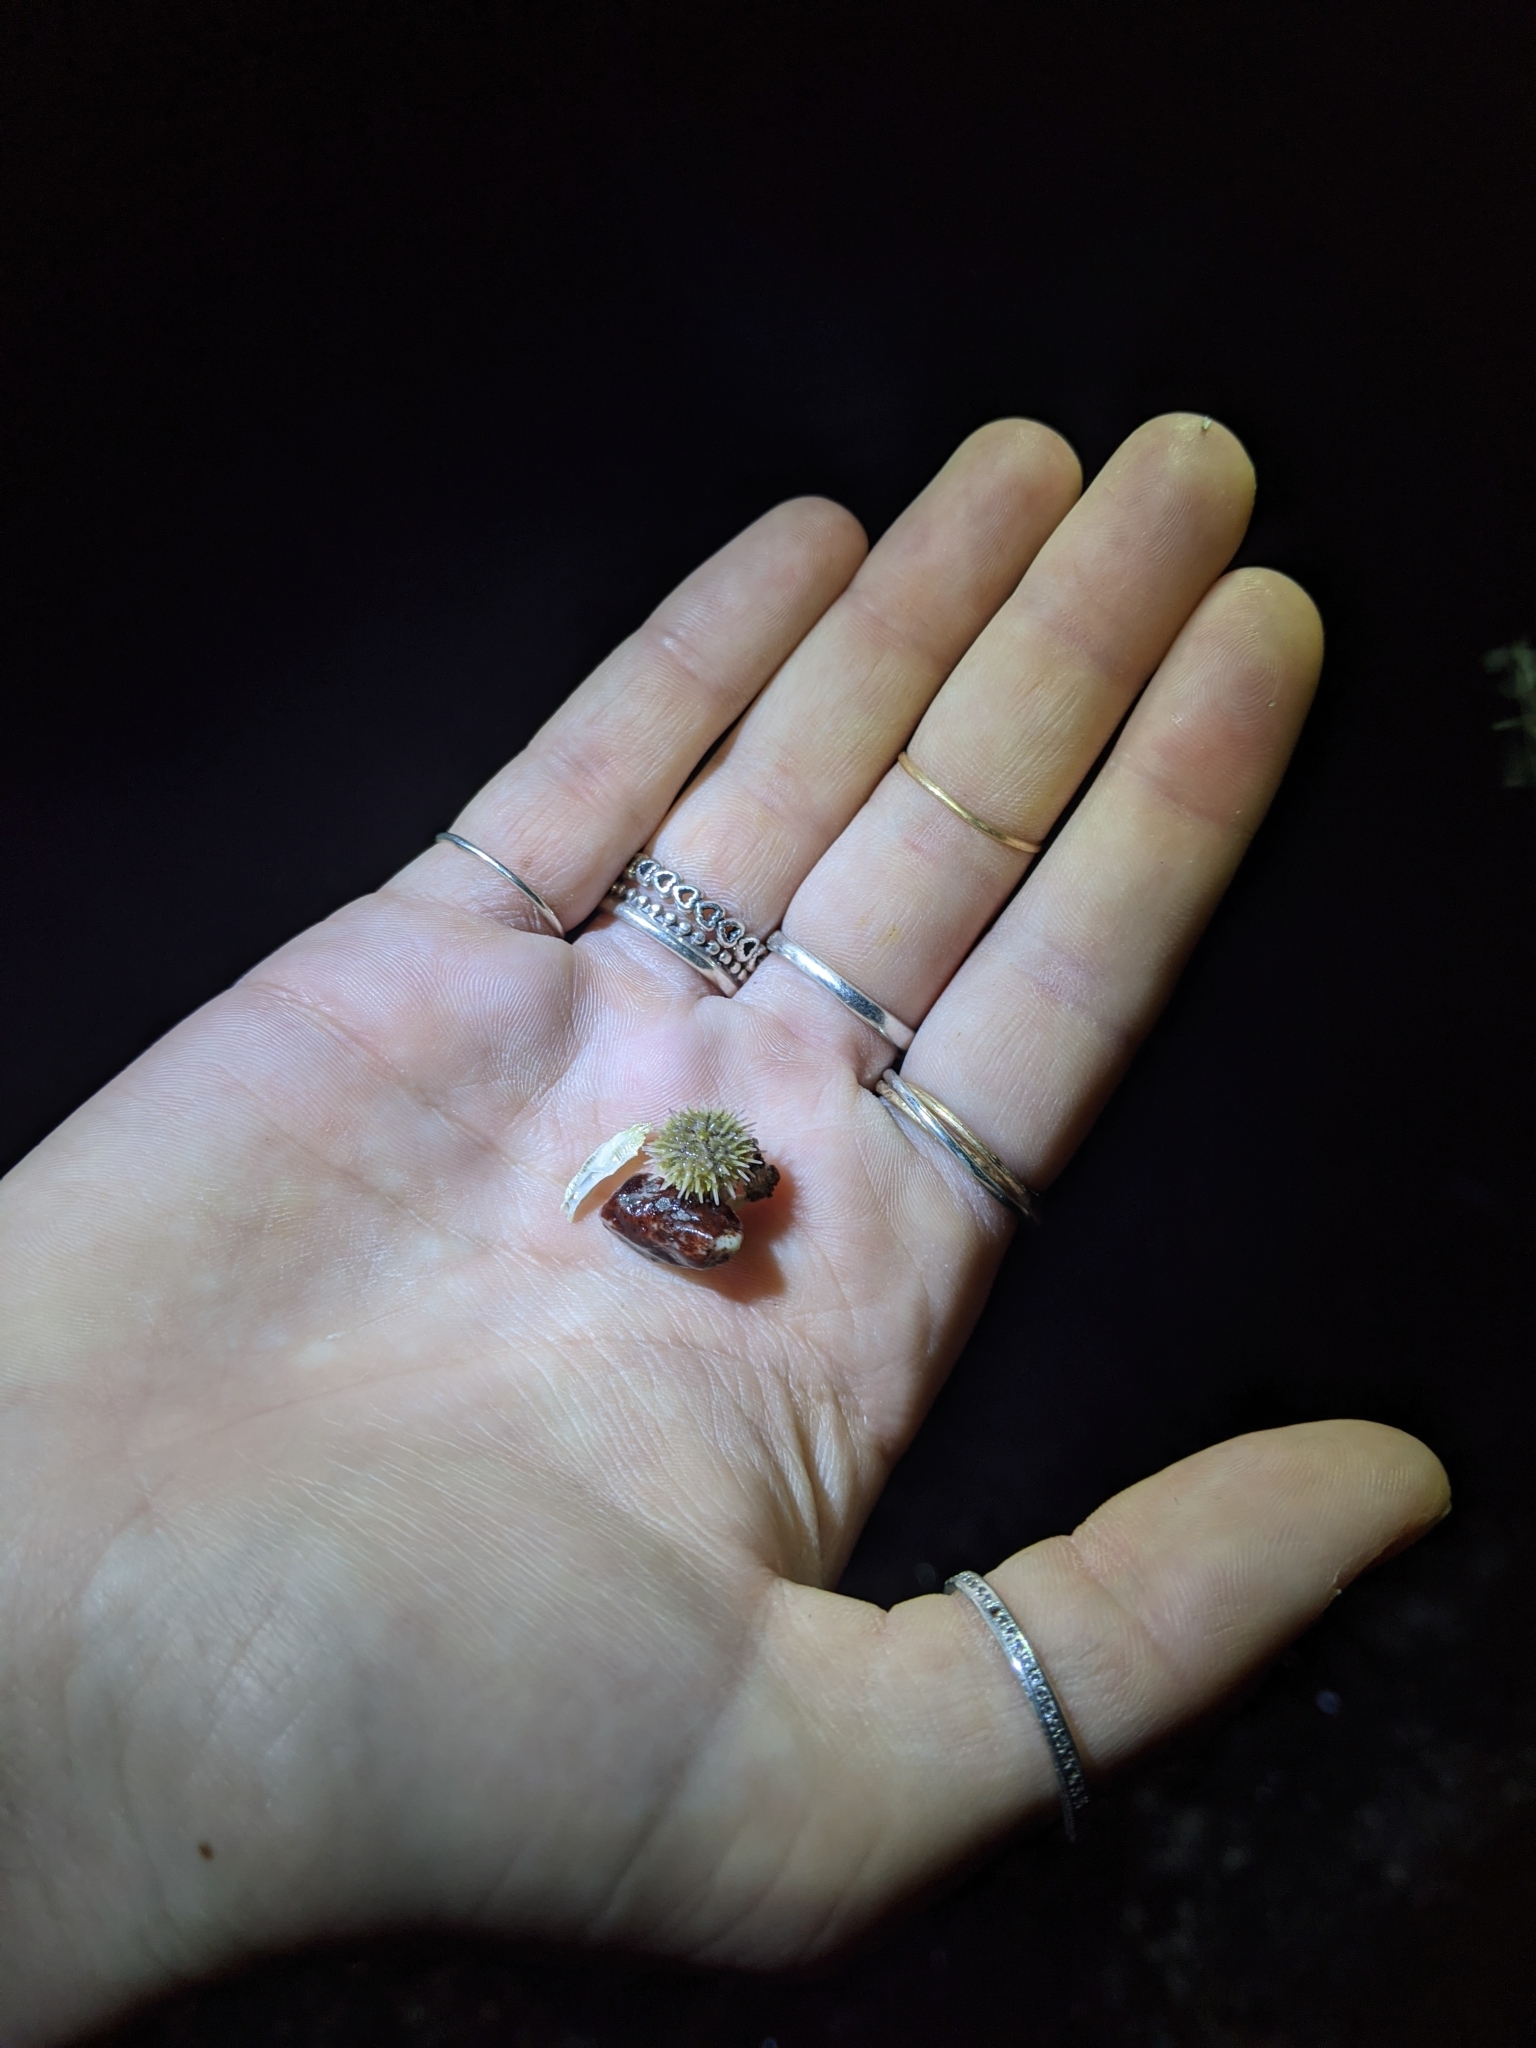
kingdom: Animalia
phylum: Echinodermata
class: Echinoidea
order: Camarodonta
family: Strongylocentrotidae
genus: Strongylocentrotus
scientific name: Strongylocentrotus droebachiensis
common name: Northern sea urchin
